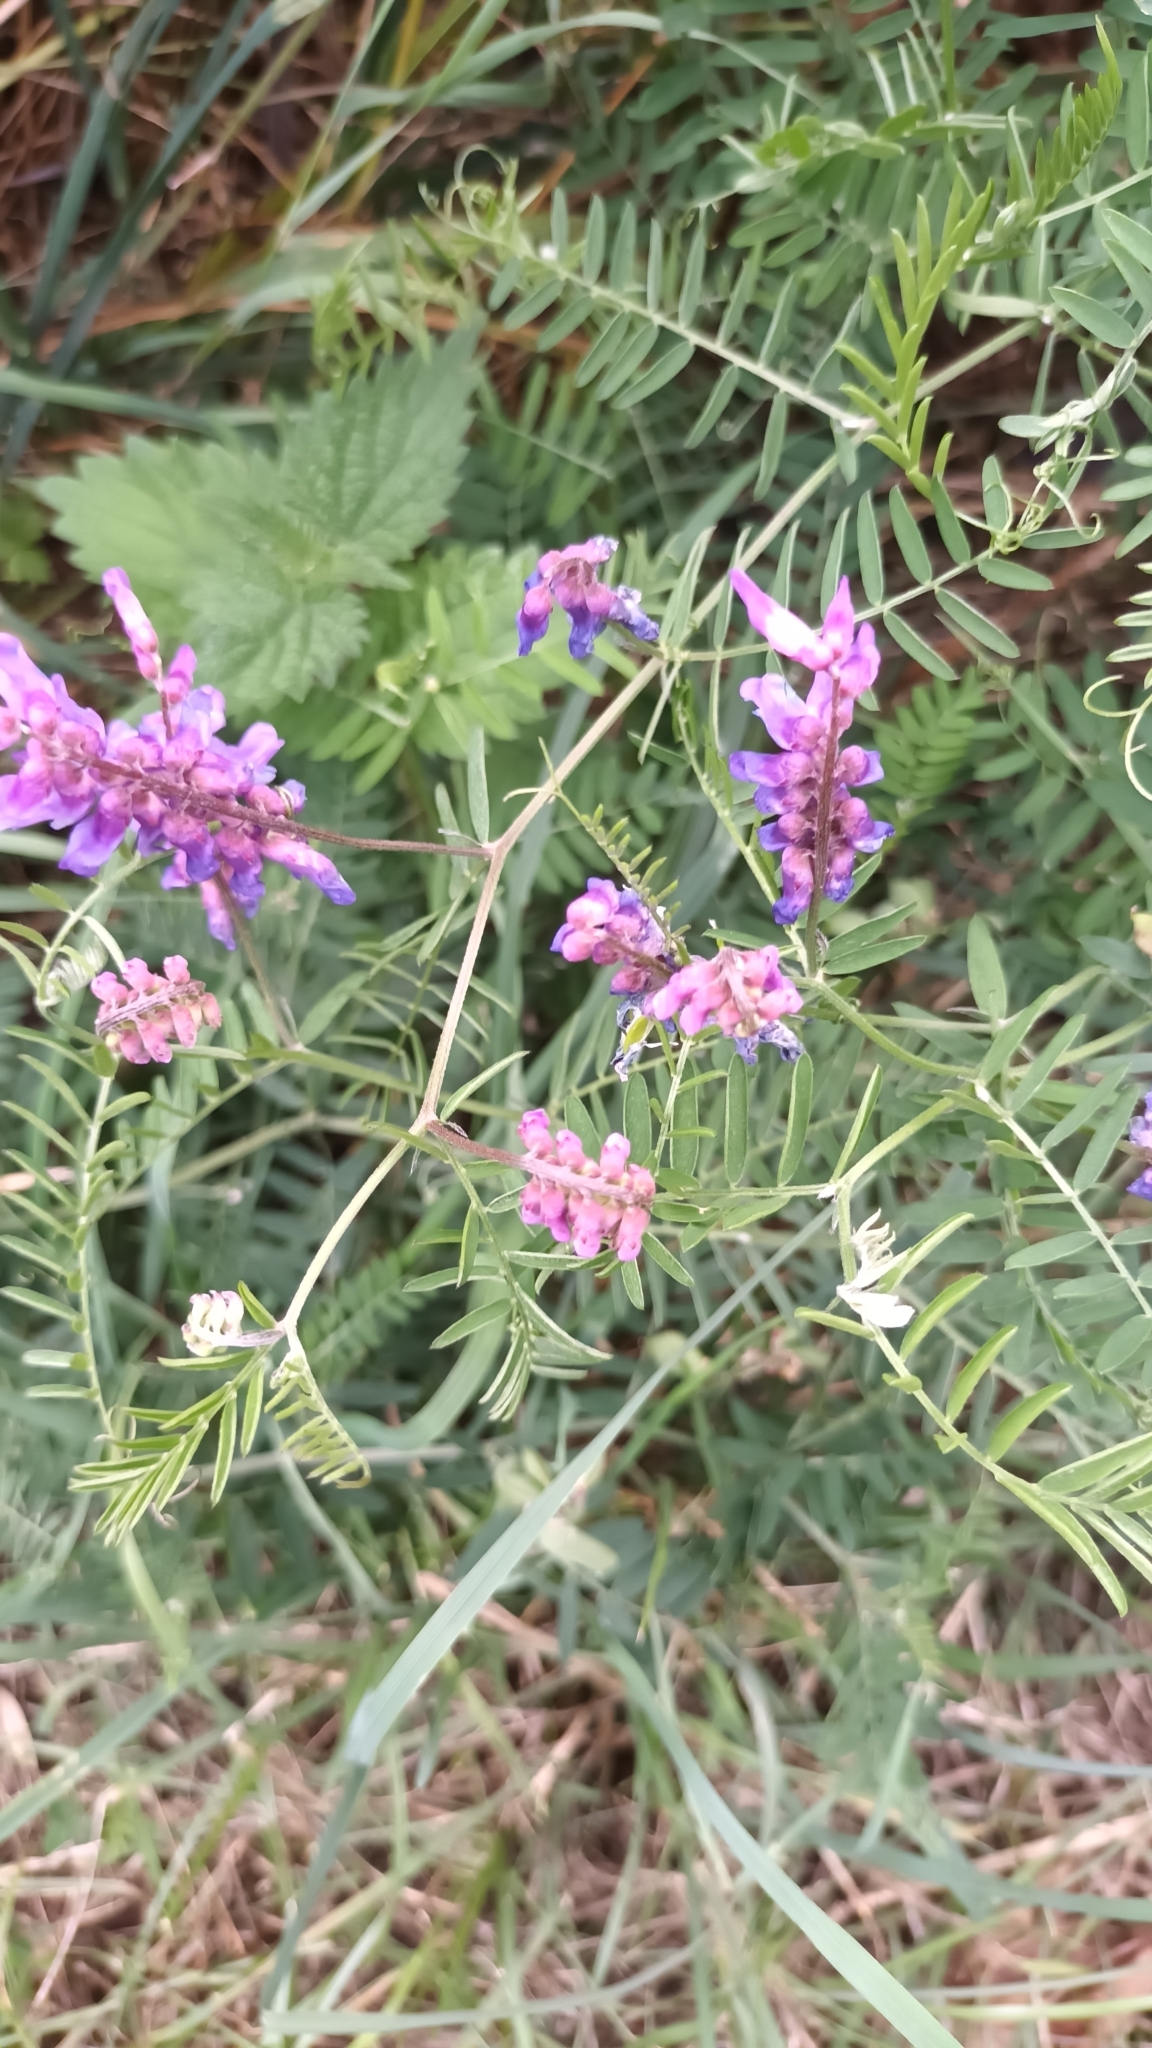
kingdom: Plantae
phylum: Tracheophyta
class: Magnoliopsida
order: Fabales
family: Fabaceae
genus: Vicia
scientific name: Vicia cracca
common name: Bird vetch
